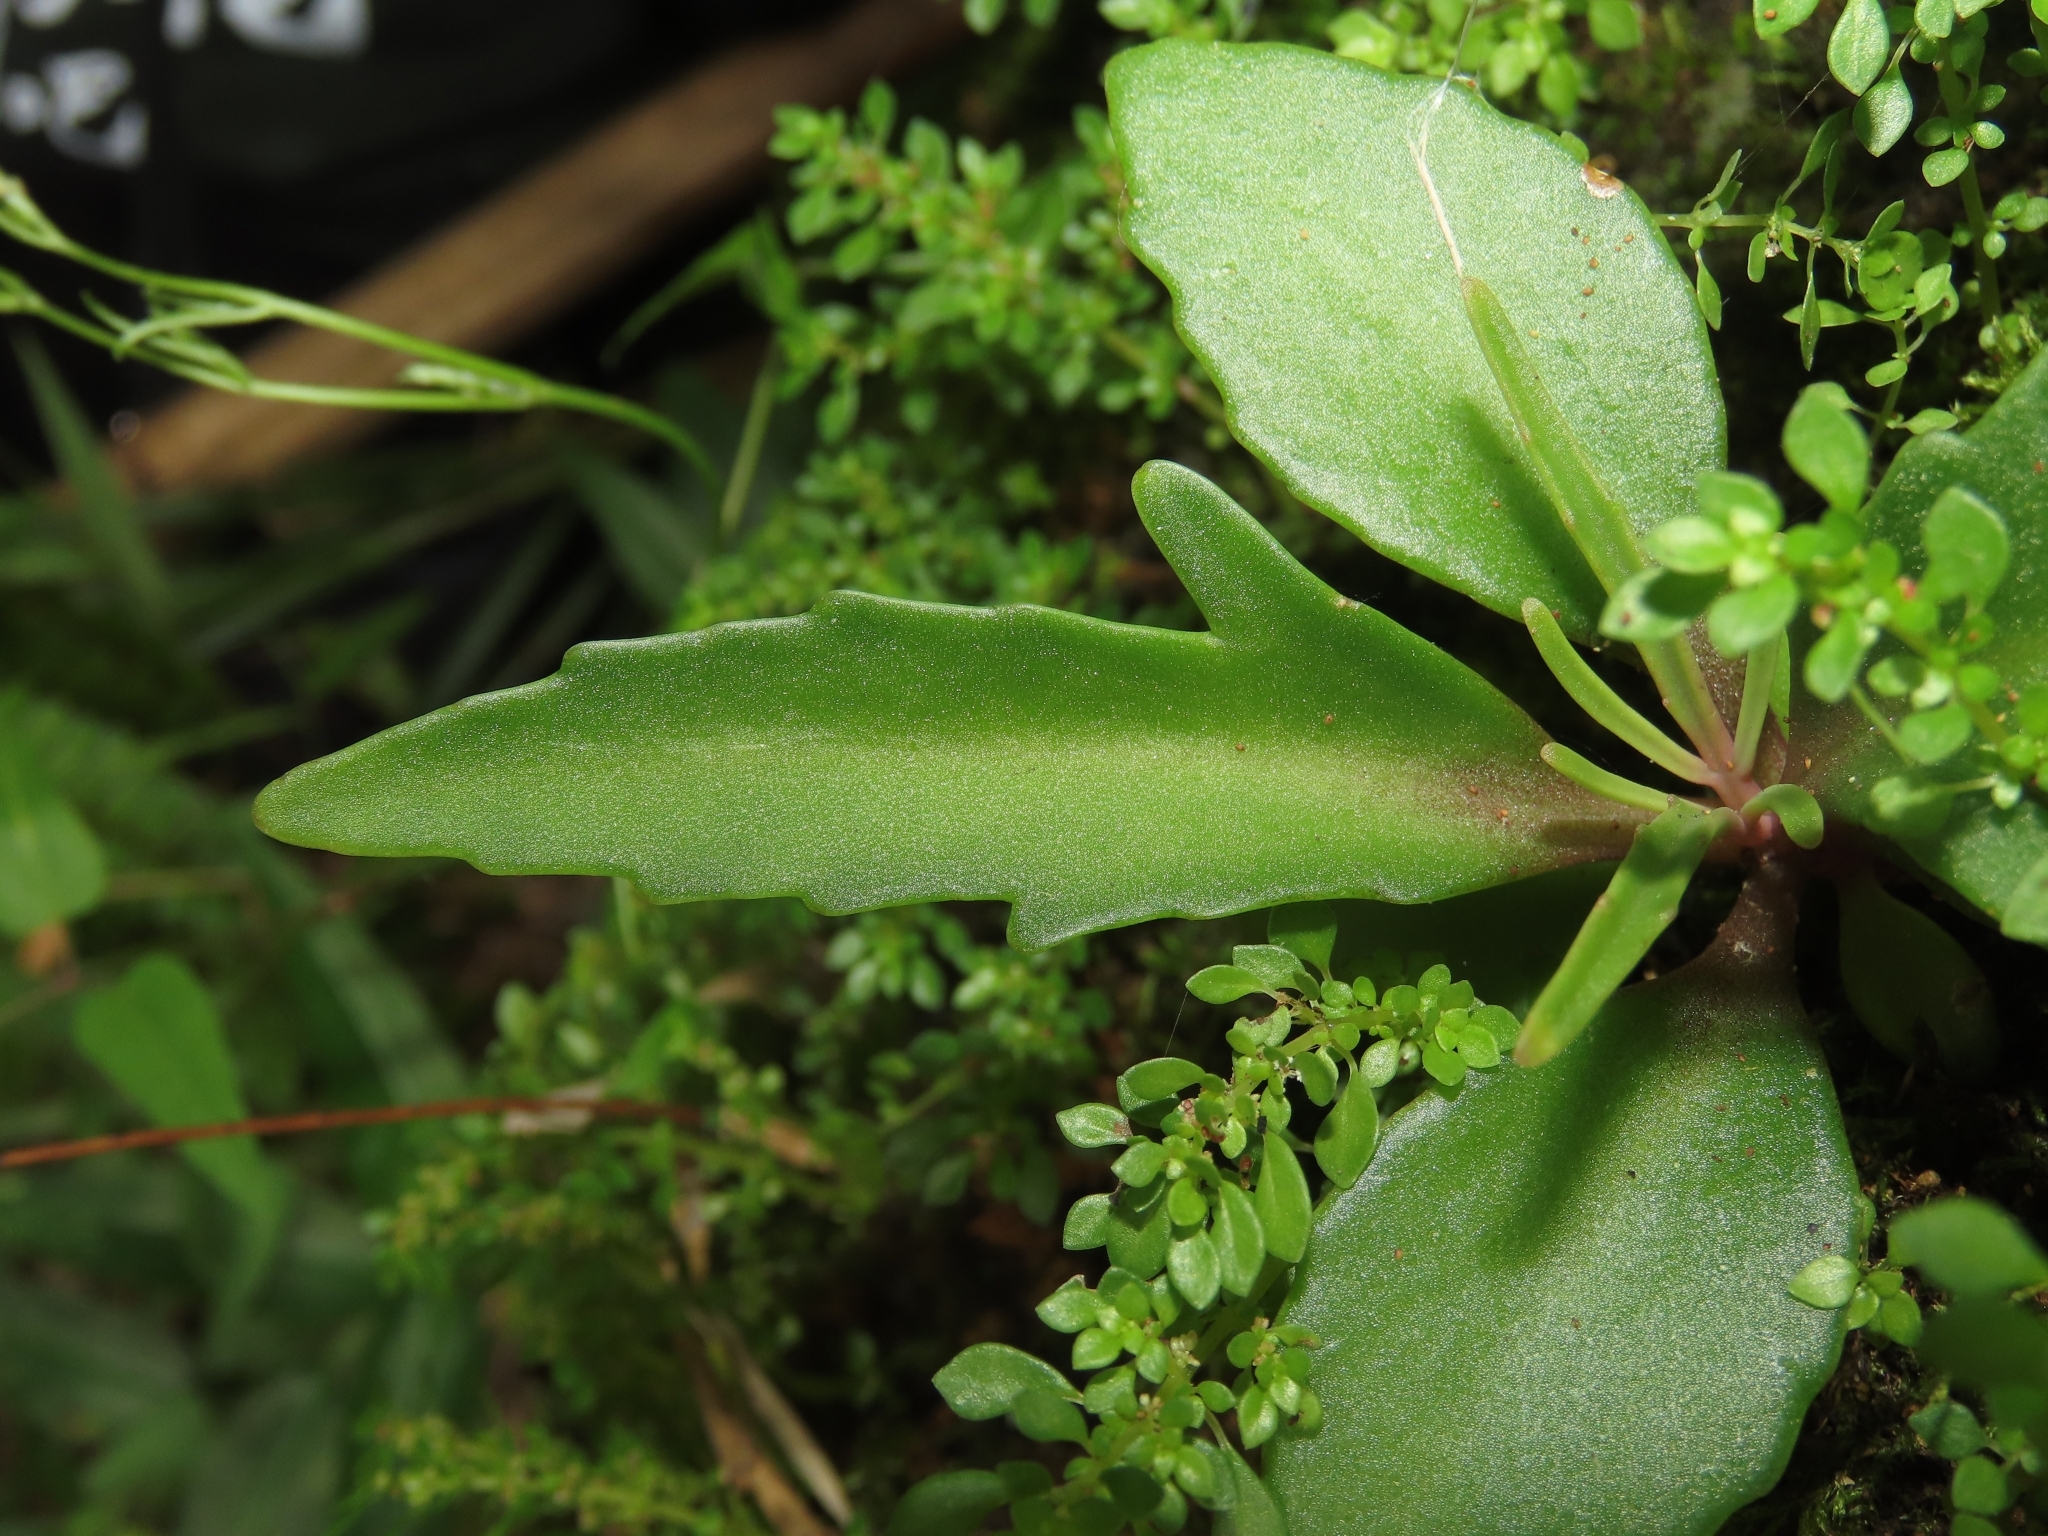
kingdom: Plantae
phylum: Tracheophyta
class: Magnoliopsida
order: Saxifragales
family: Crassulaceae
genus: Kalanchoe
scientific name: Kalanchoe integra
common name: Neverdie
